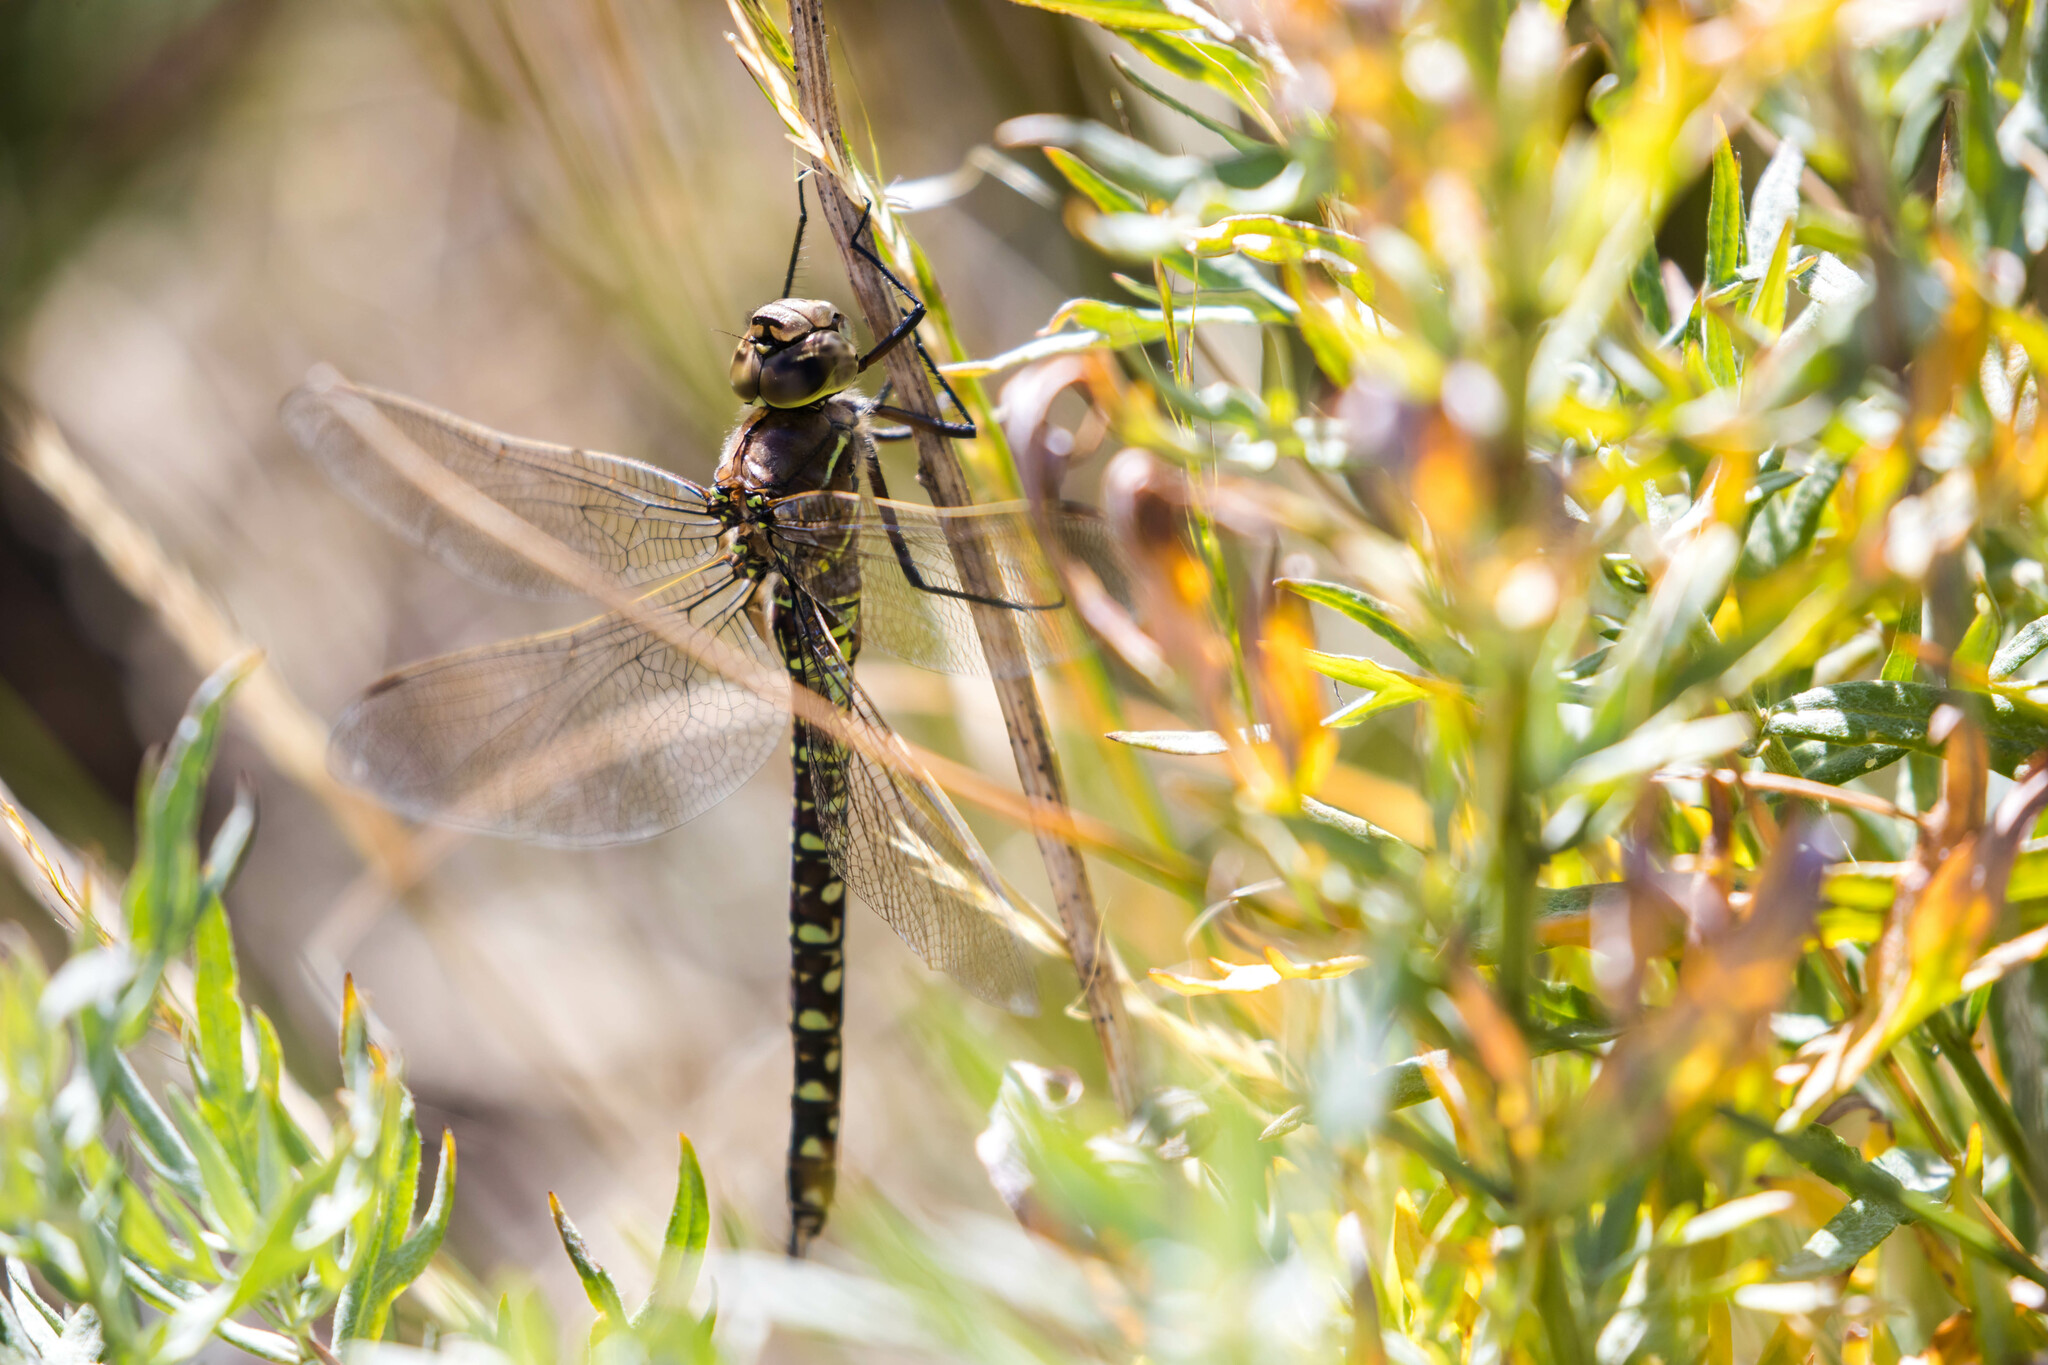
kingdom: Animalia
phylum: Arthropoda
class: Insecta
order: Odonata
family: Aeshnidae
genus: Aeshna
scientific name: Aeshna interrupta
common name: Variable darner
